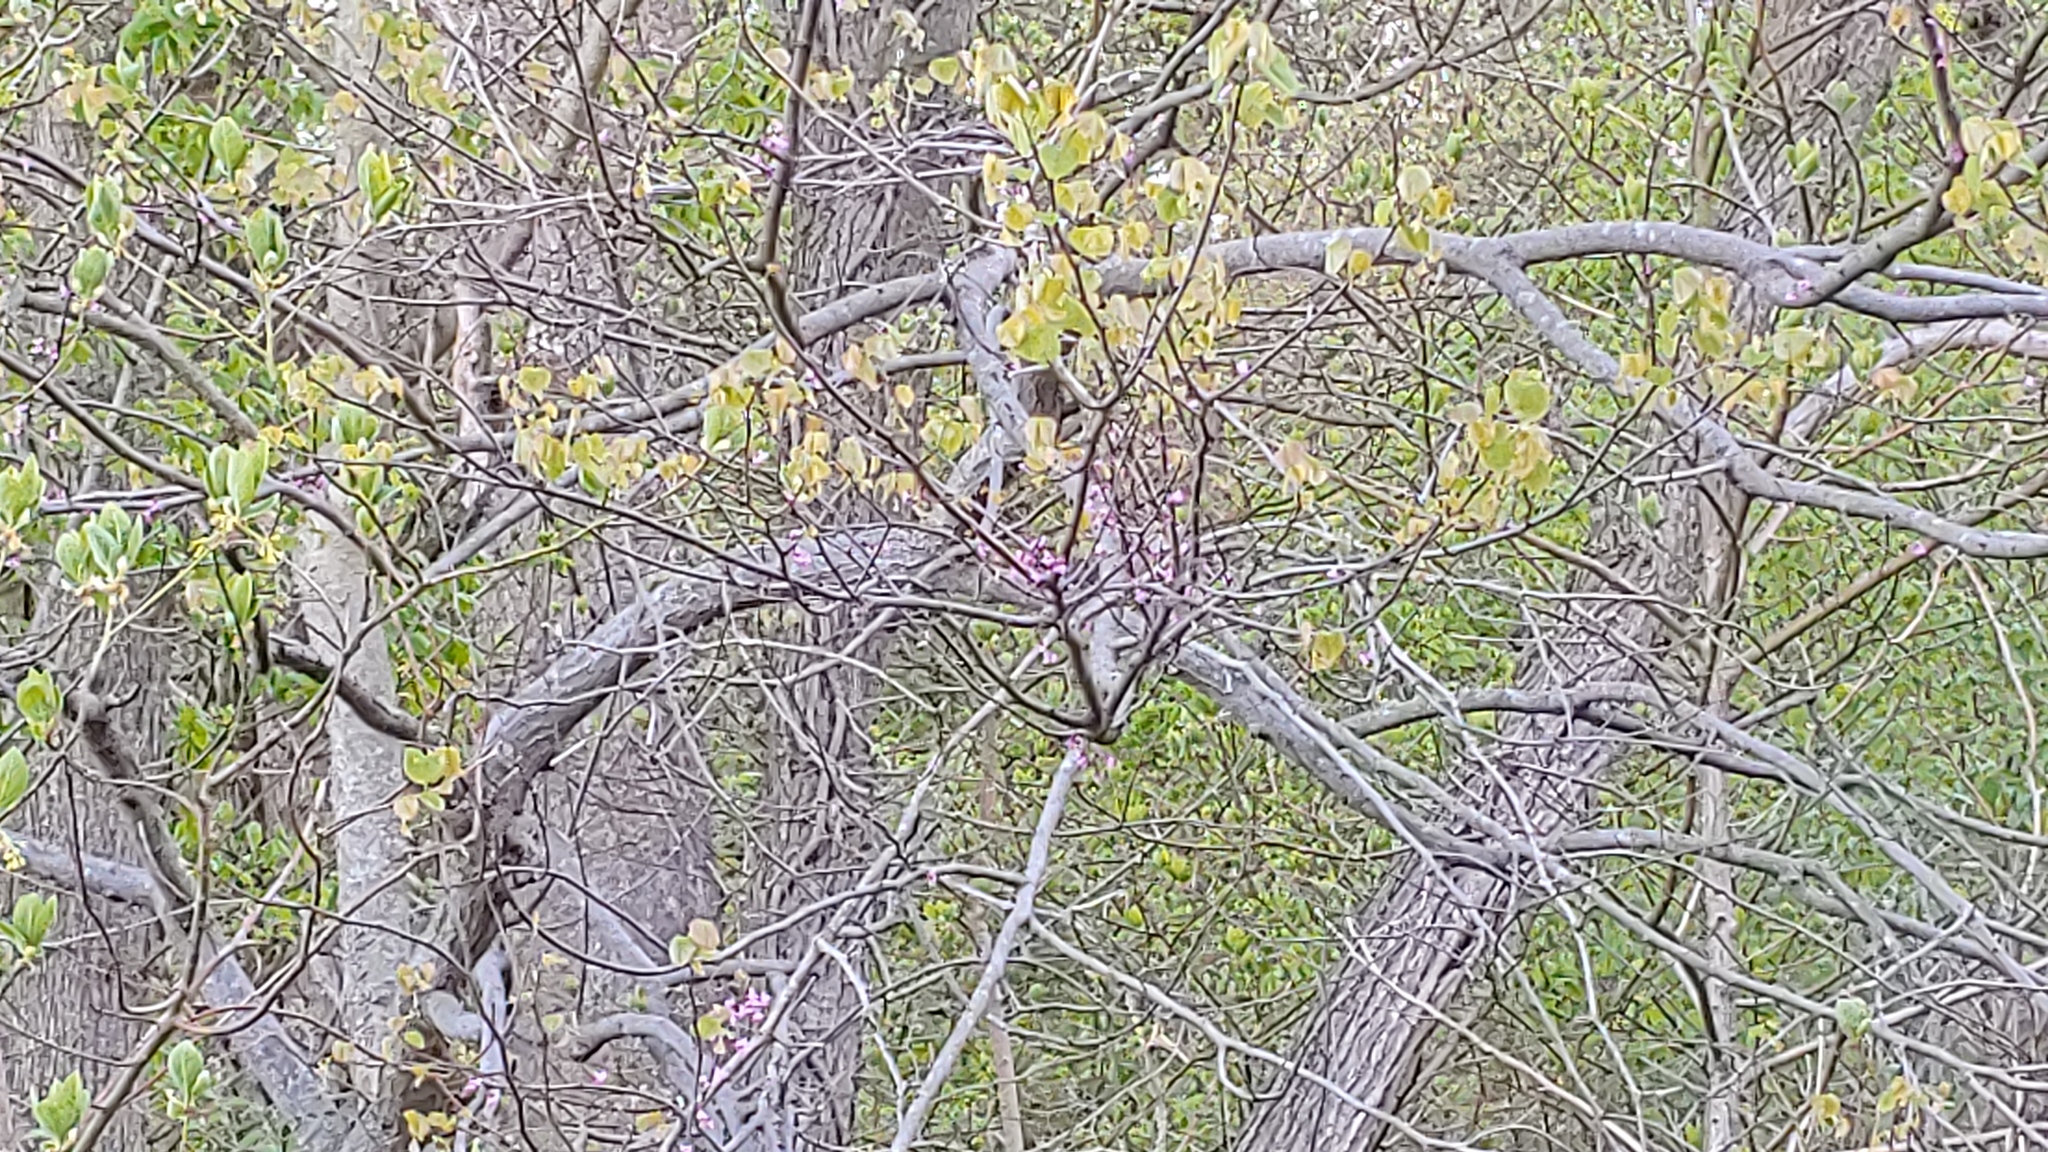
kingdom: Plantae
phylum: Tracheophyta
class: Magnoliopsida
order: Fabales
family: Fabaceae
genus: Cercis
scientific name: Cercis canadensis
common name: Eastern redbud
